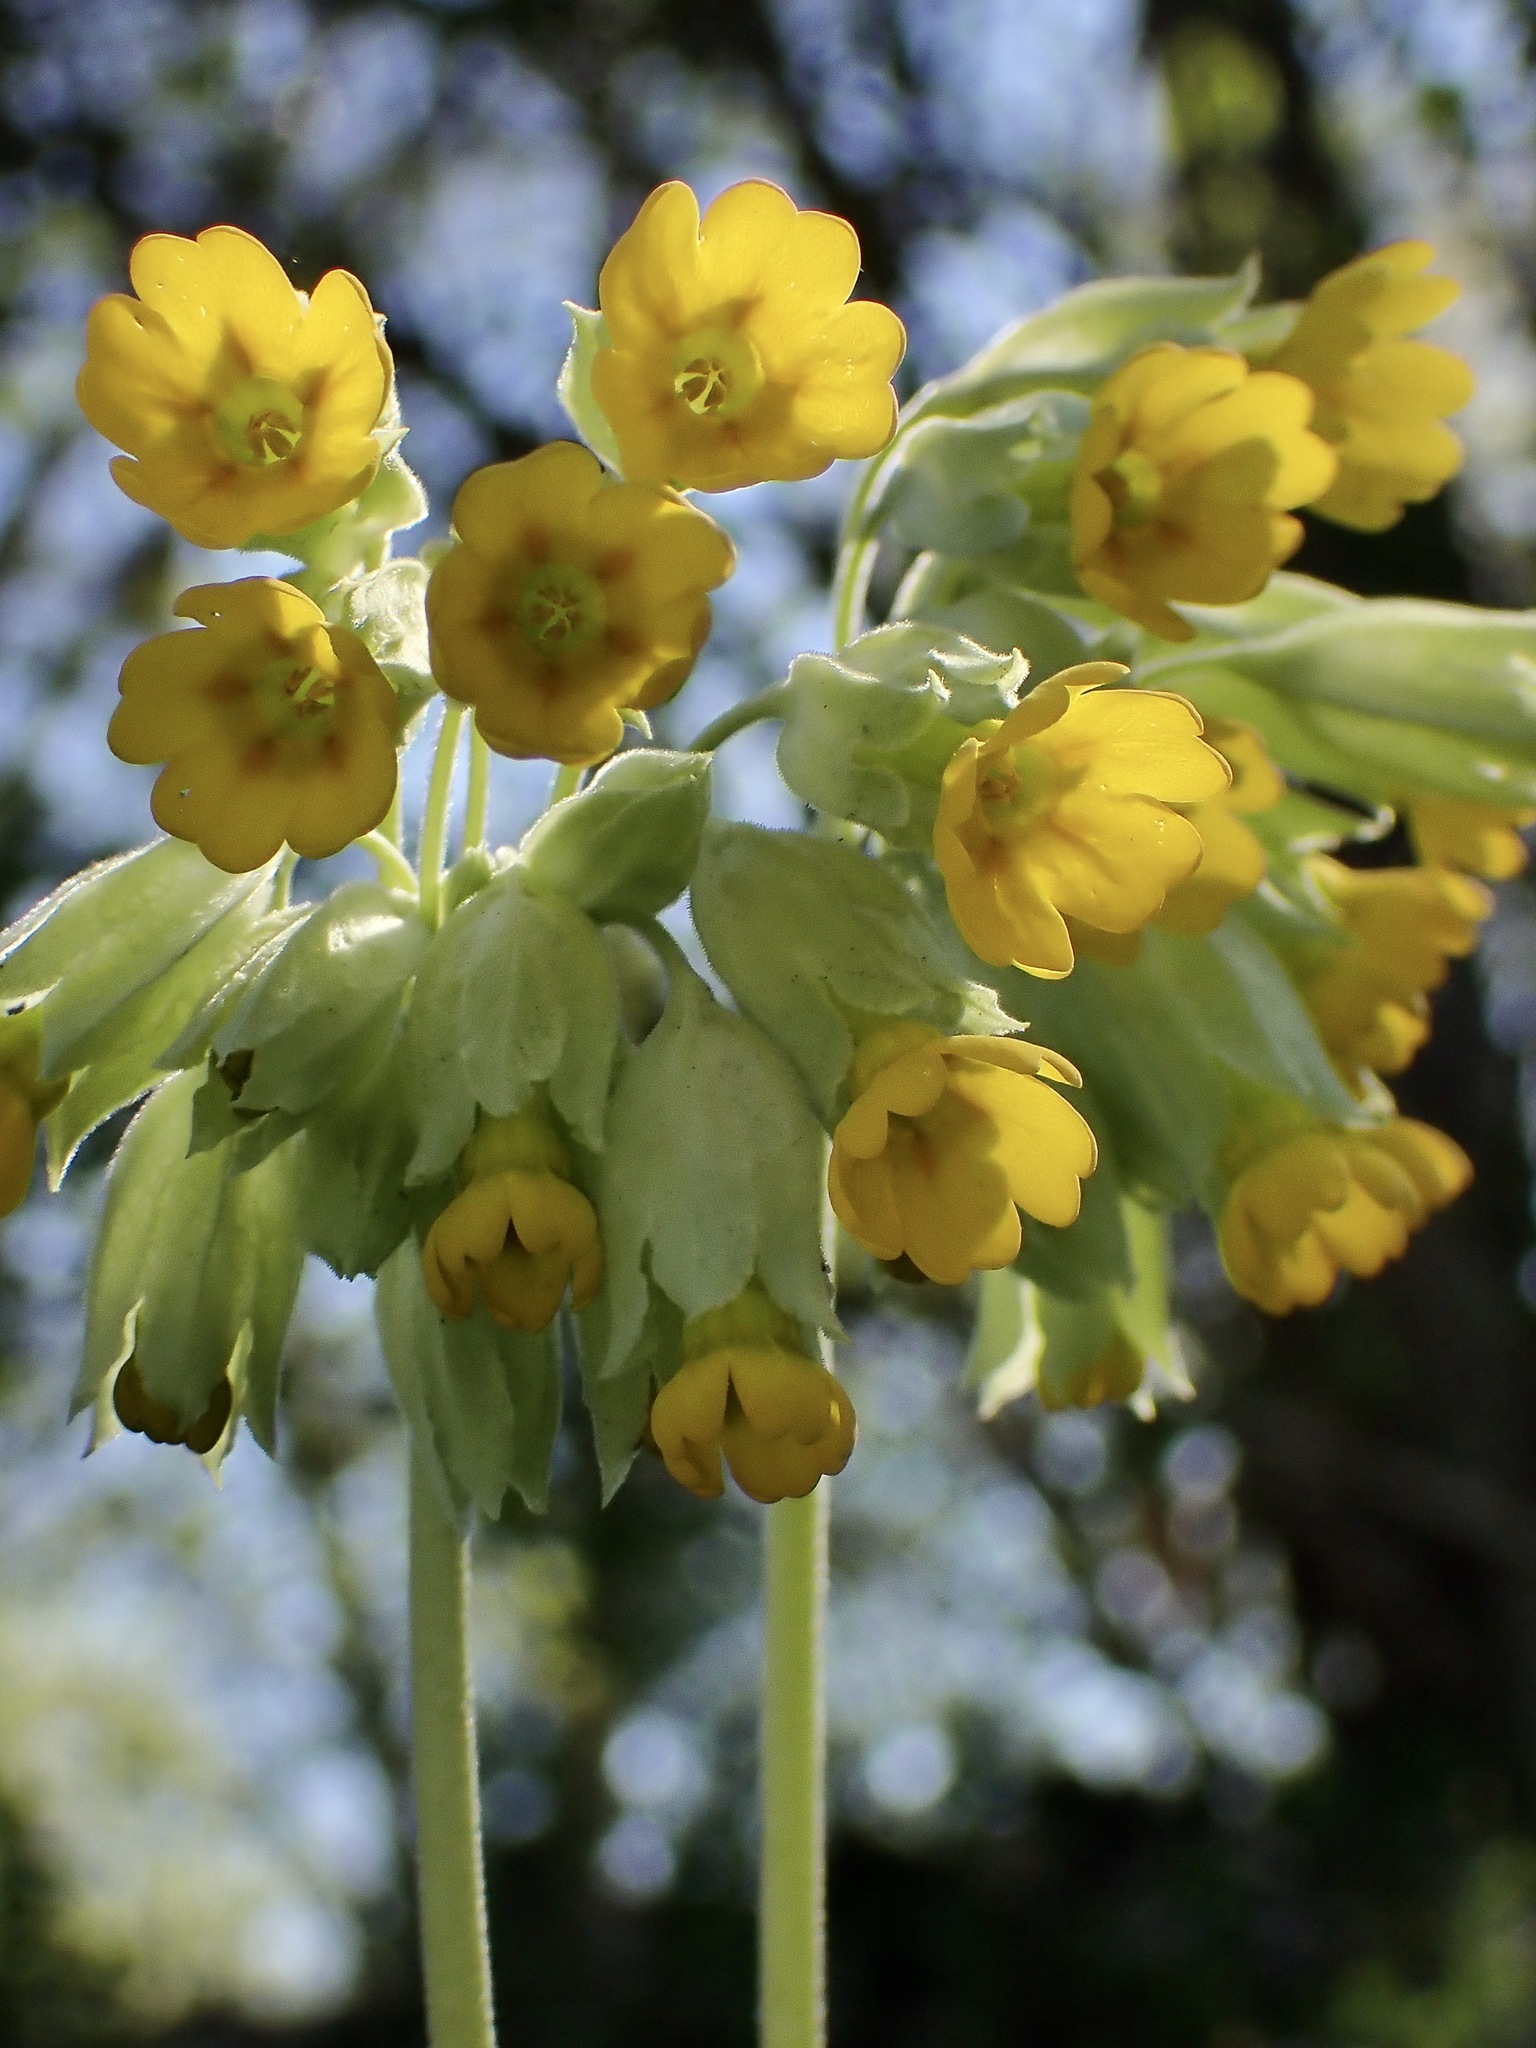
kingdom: Plantae
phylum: Tracheophyta
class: Magnoliopsida
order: Ericales
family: Primulaceae
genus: Primula
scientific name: Primula veris
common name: Cowslip
